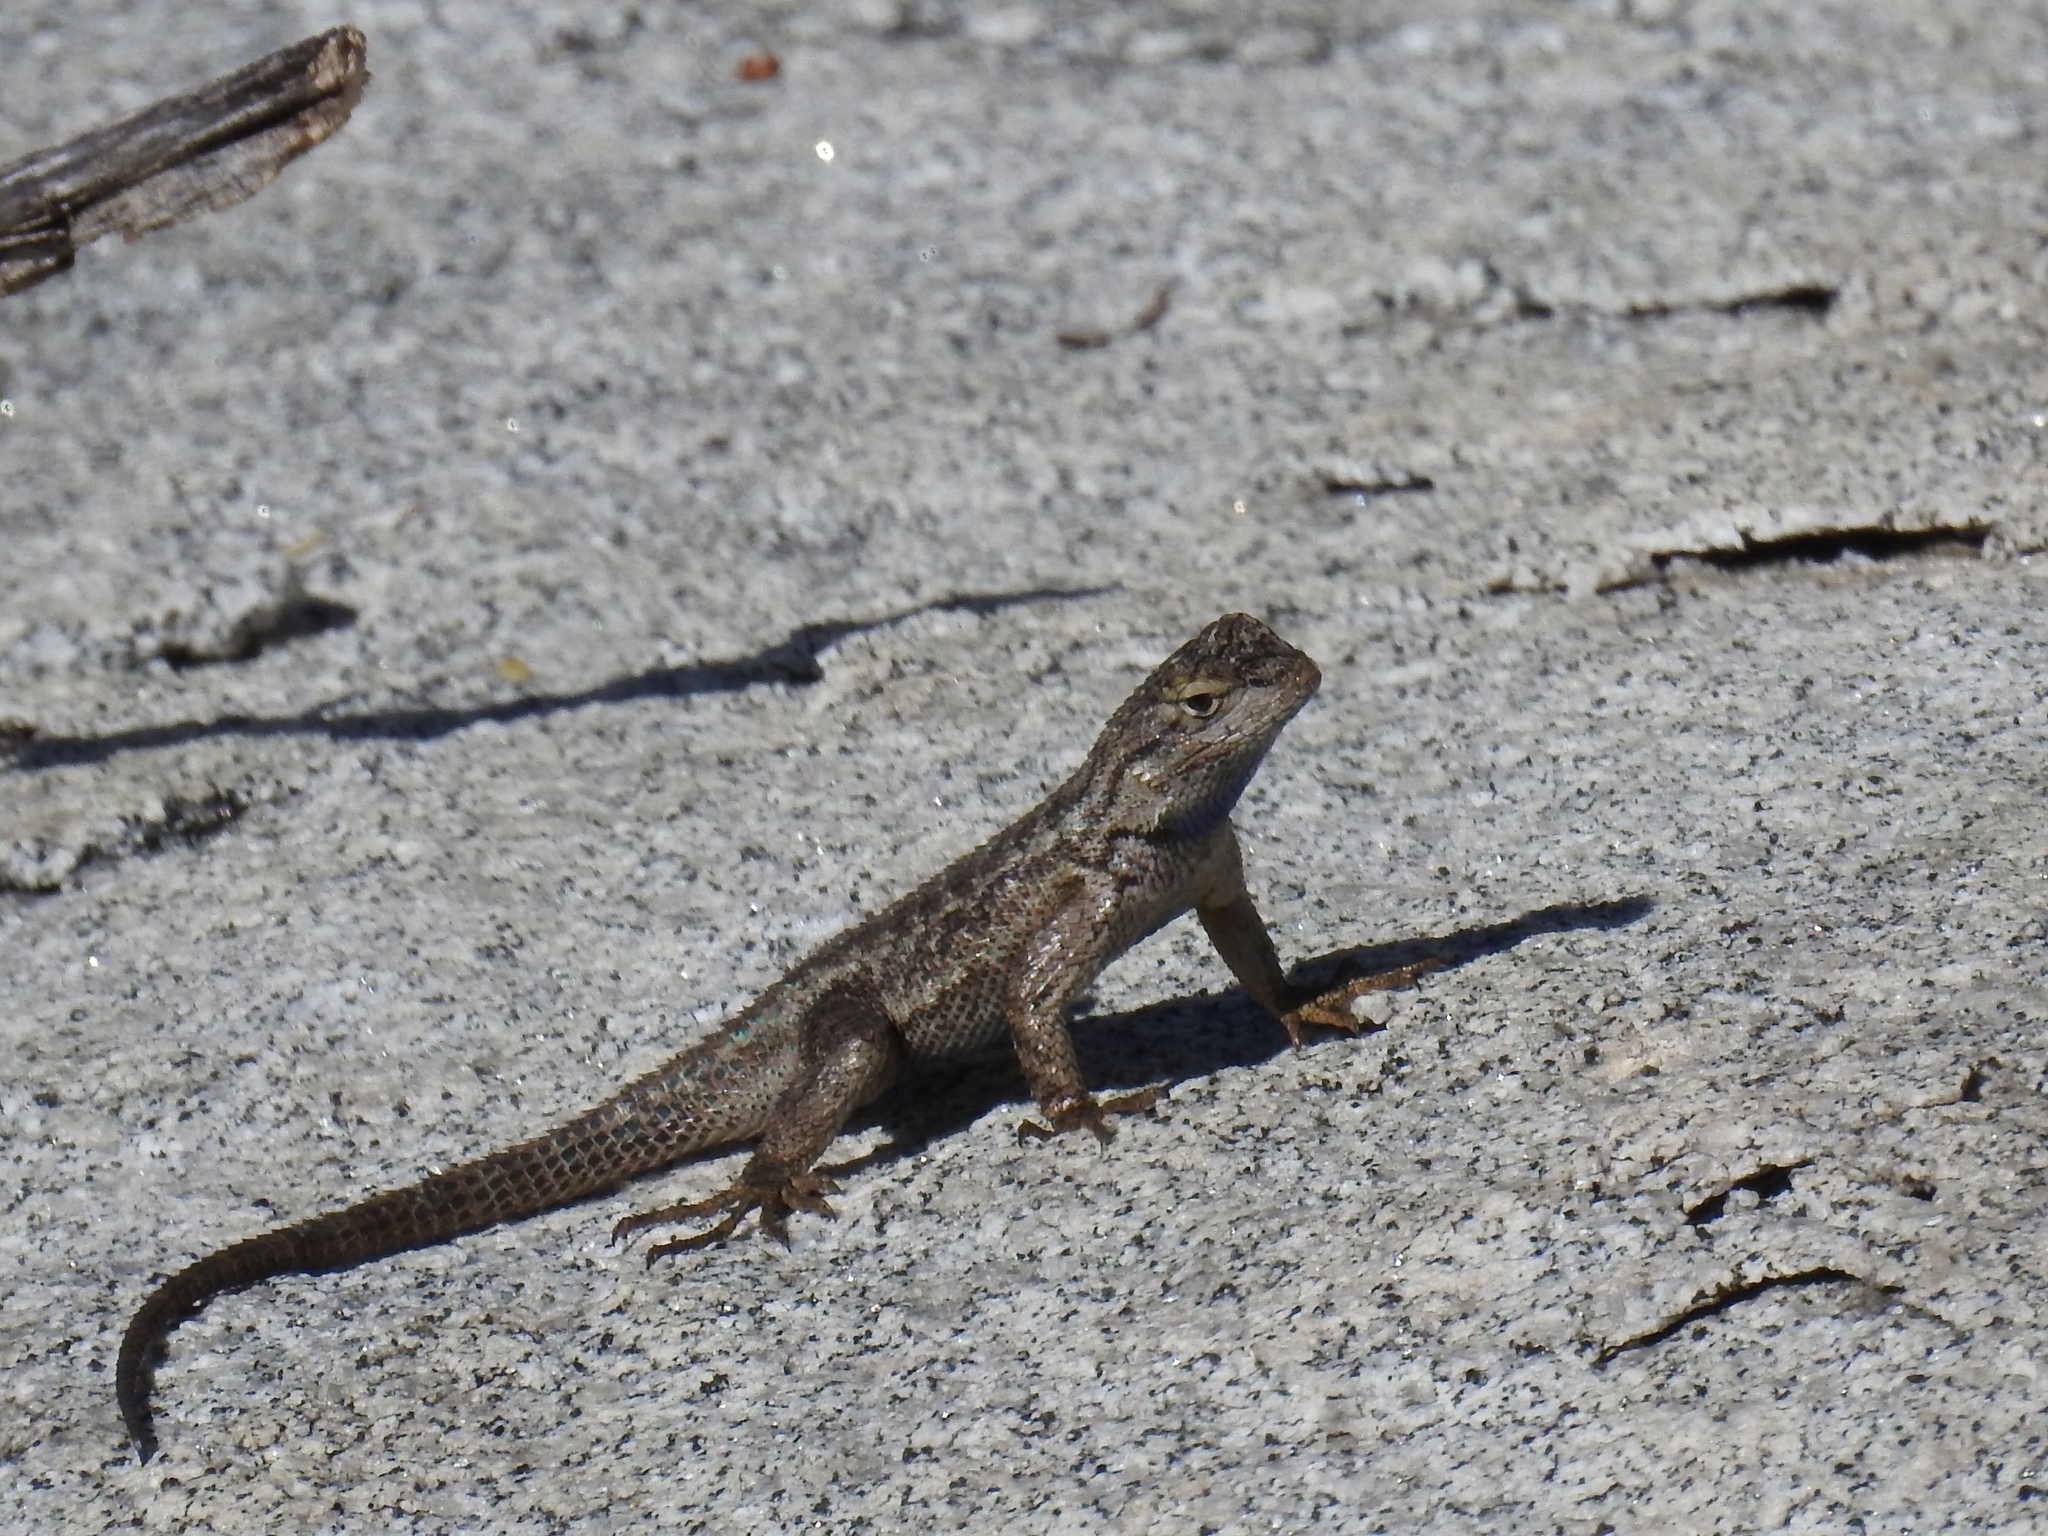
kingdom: Animalia
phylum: Chordata
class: Squamata
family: Phrynosomatidae
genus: Sceloporus
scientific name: Sceloporus occidentalis
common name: Western fence lizard
